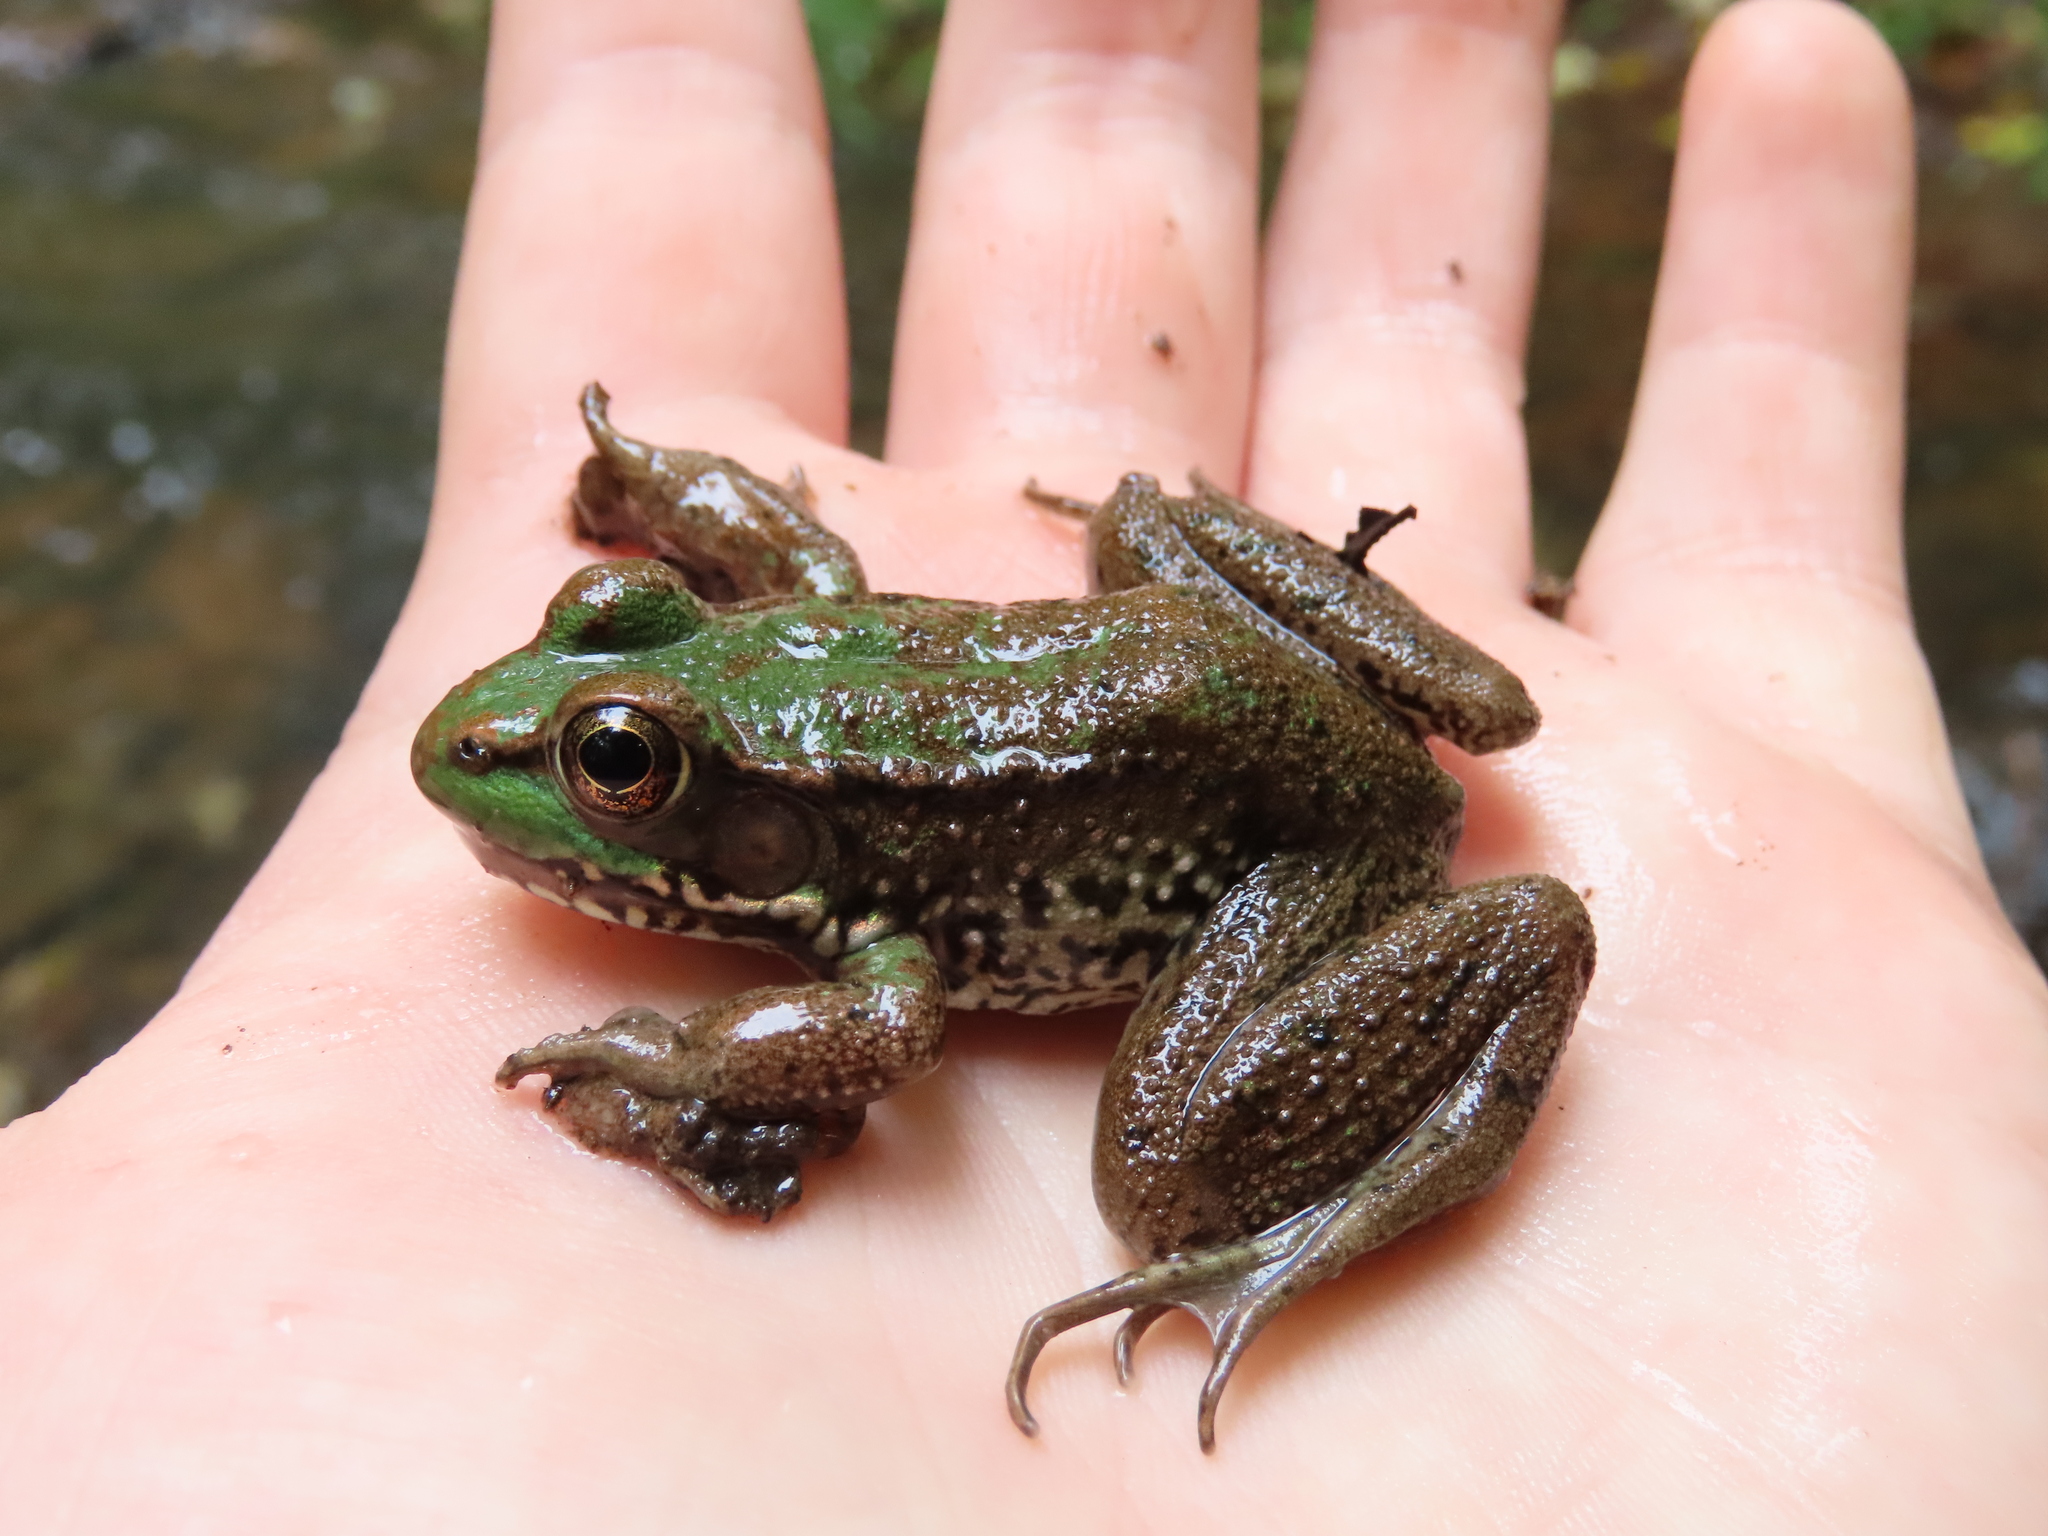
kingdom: Animalia
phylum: Chordata
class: Amphibia
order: Anura
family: Ranidae
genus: Lithobates
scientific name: Lithobates clamitans
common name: Green frog
